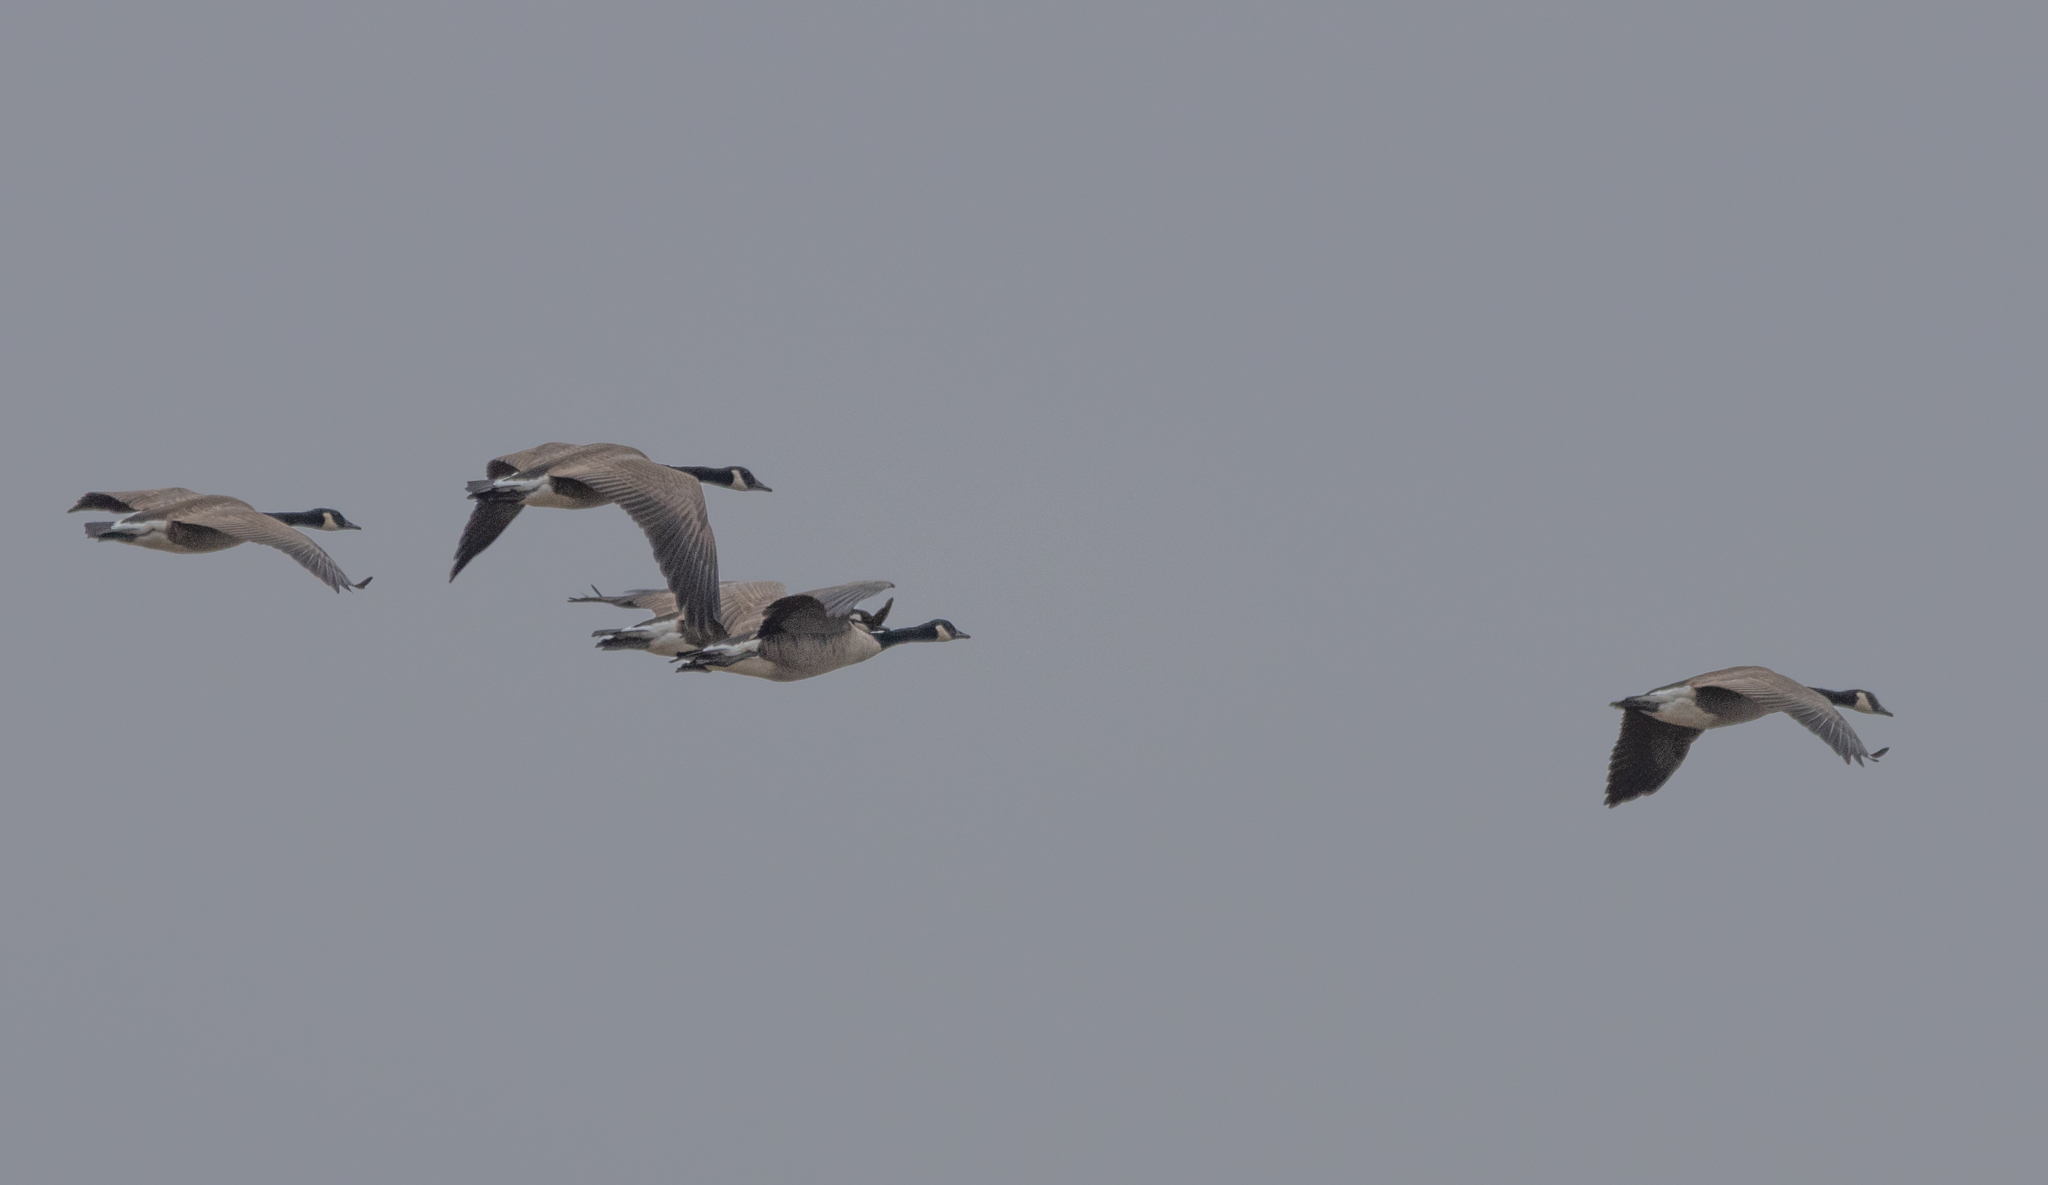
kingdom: Animalia
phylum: Chordata
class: Aves
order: Anseriformes
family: Anatidae
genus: Branta
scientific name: Branta canadensis
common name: Canada goose
